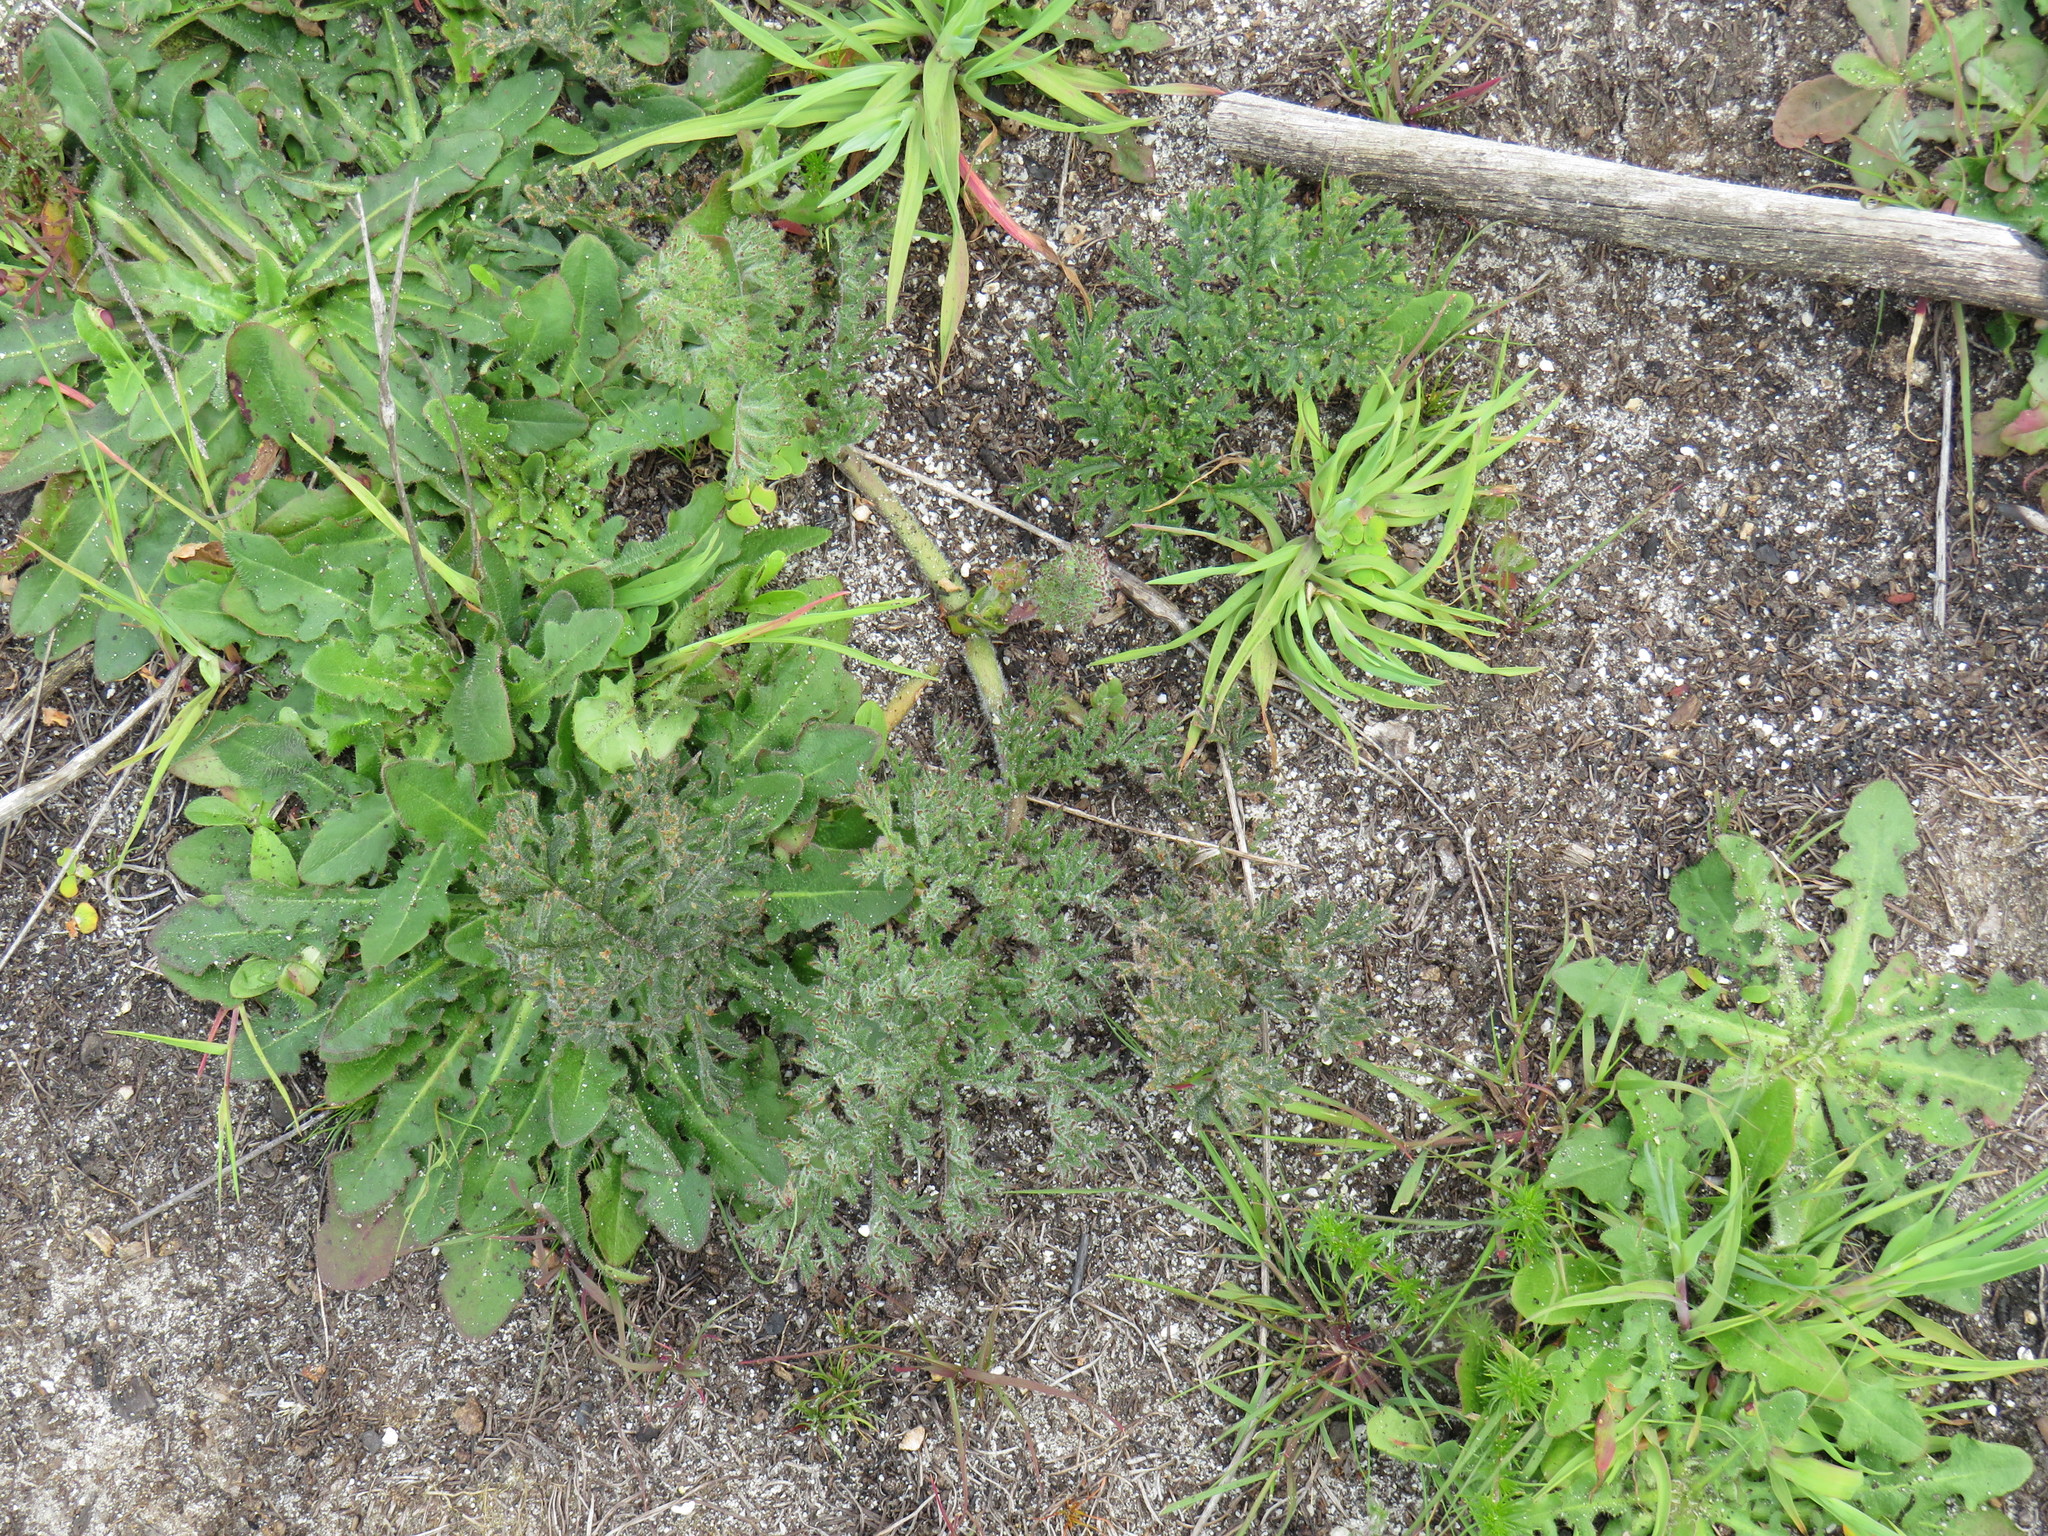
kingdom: Plantae
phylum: Tracheophyta
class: Magnoliopsida
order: Geraniales
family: Geraniaceae
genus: Pelargonium
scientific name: Pelargonium triste
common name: Night-scent pelargonium
